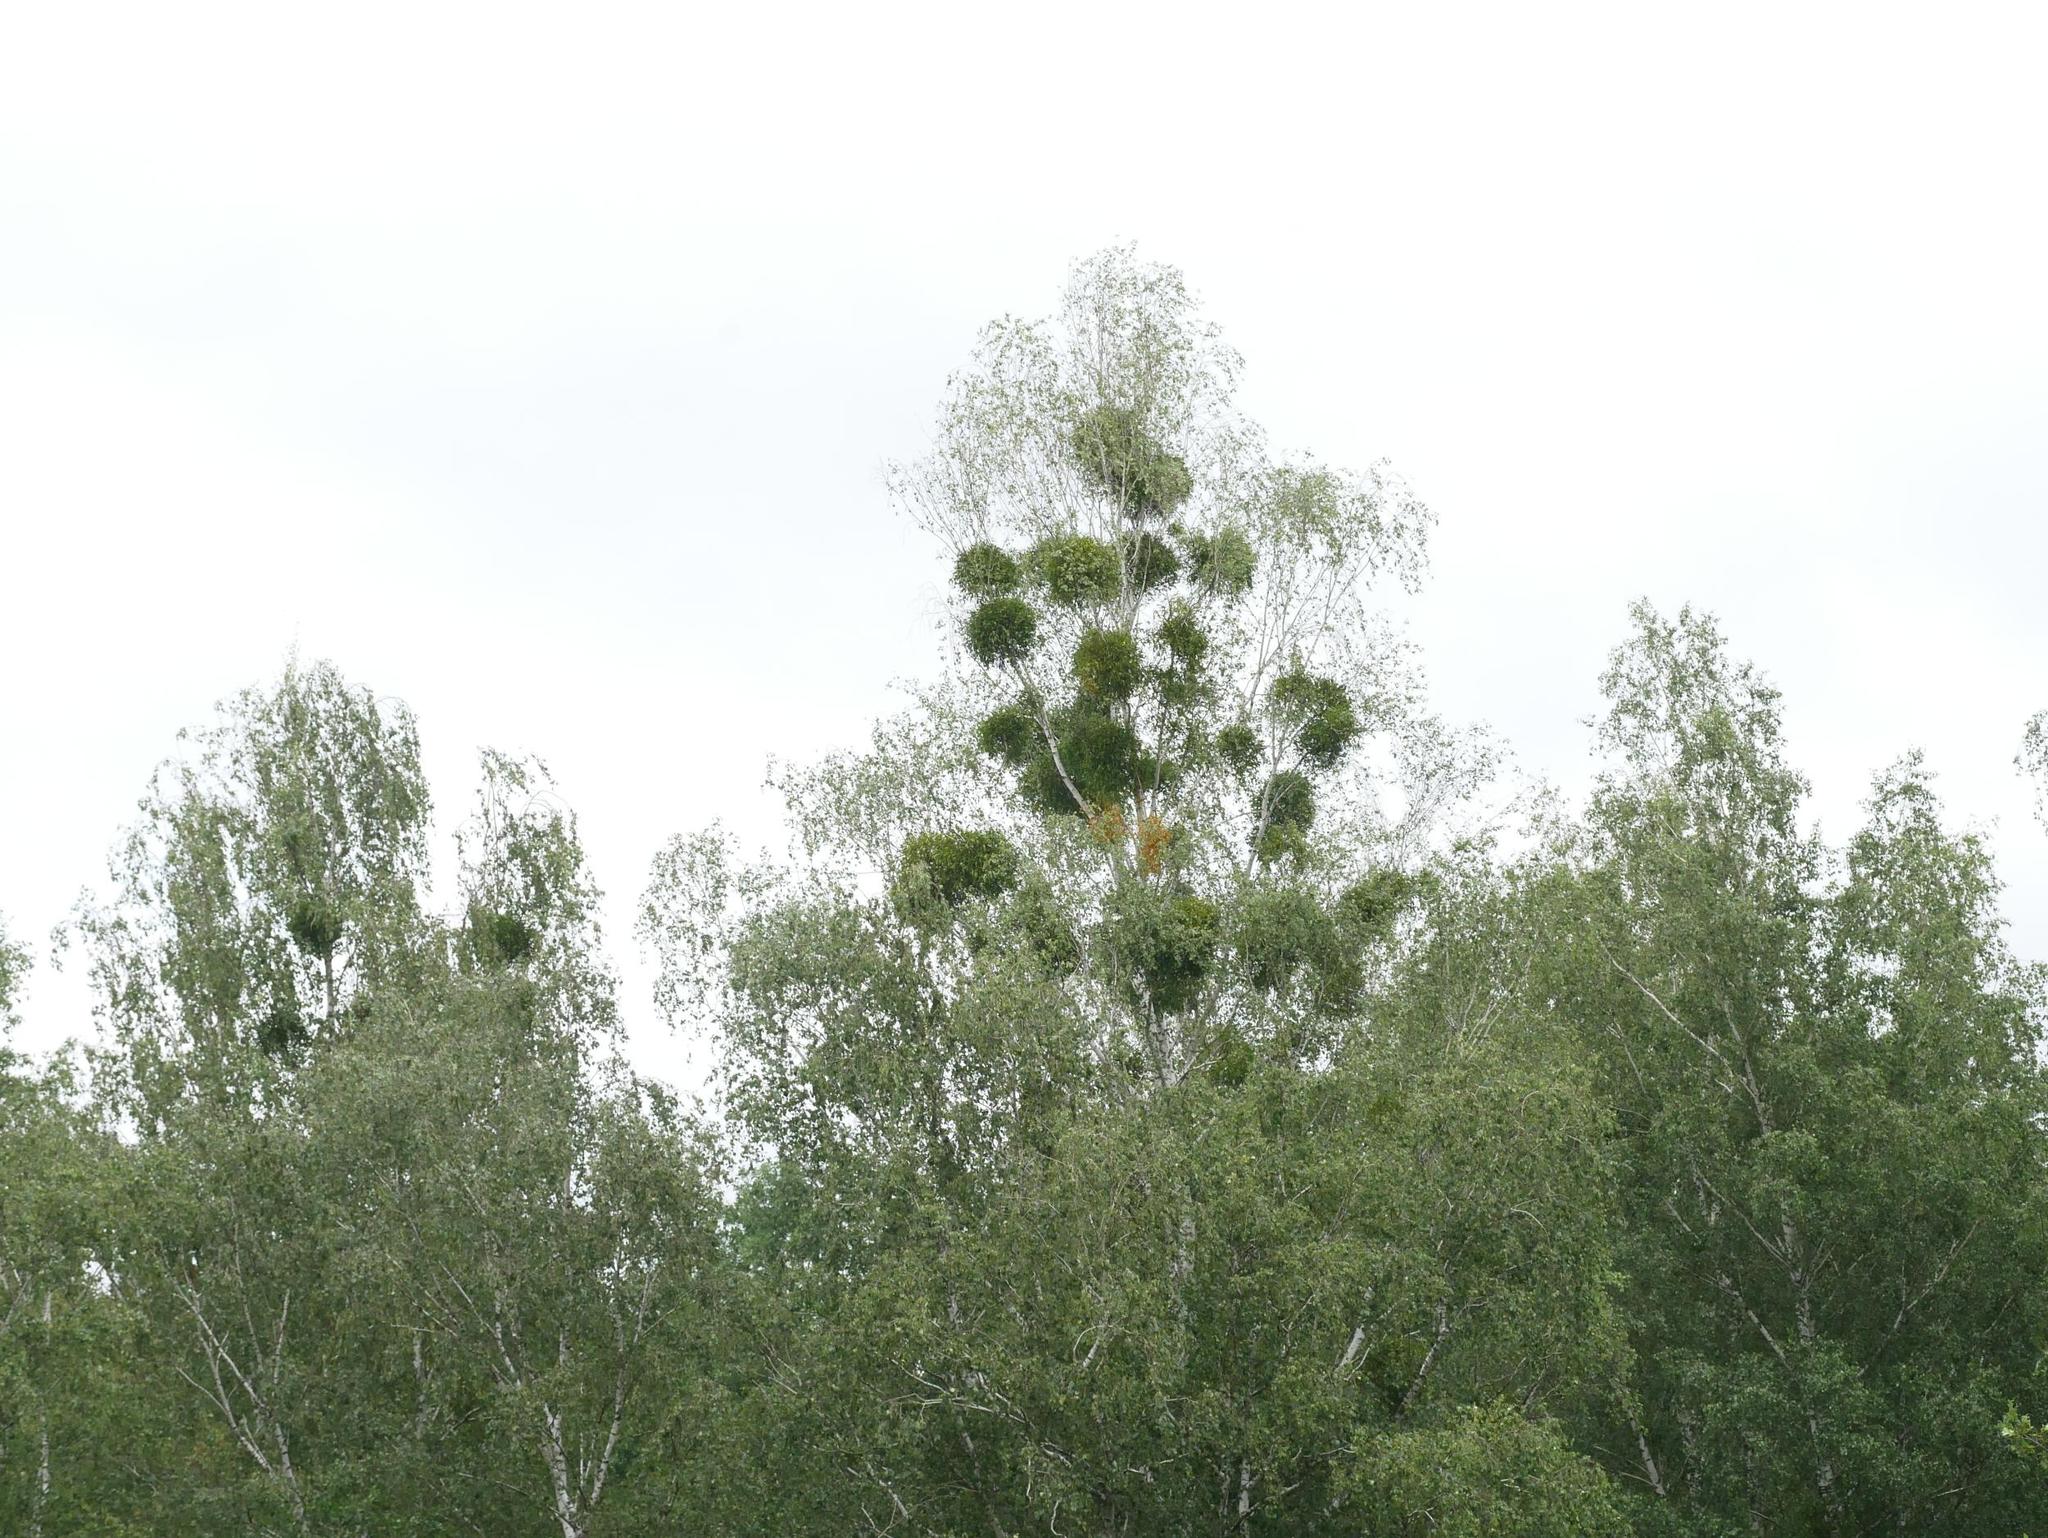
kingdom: Plantae
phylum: Tracheophyta
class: Magnoliopsida
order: Fagales
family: Betulaceae
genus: Betula
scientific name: Betula pendula
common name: Silver birch
